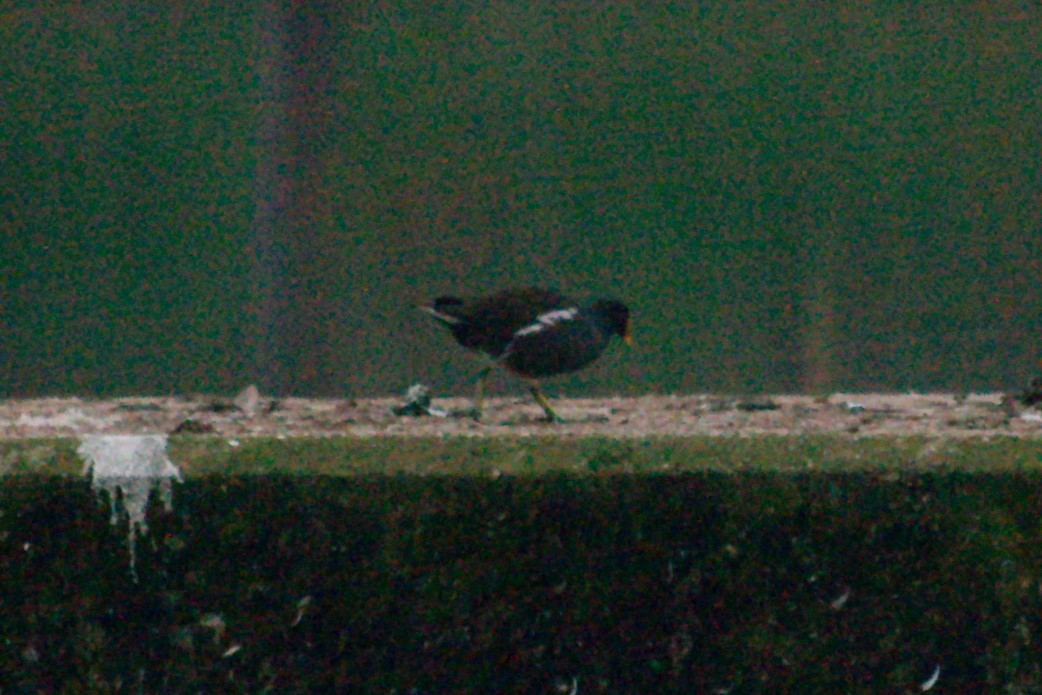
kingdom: Animalia
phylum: Chordata
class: Aves
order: Gruiformes
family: Rallidae
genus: Gallinula
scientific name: Gallinula chloropus
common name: Common moorhen
